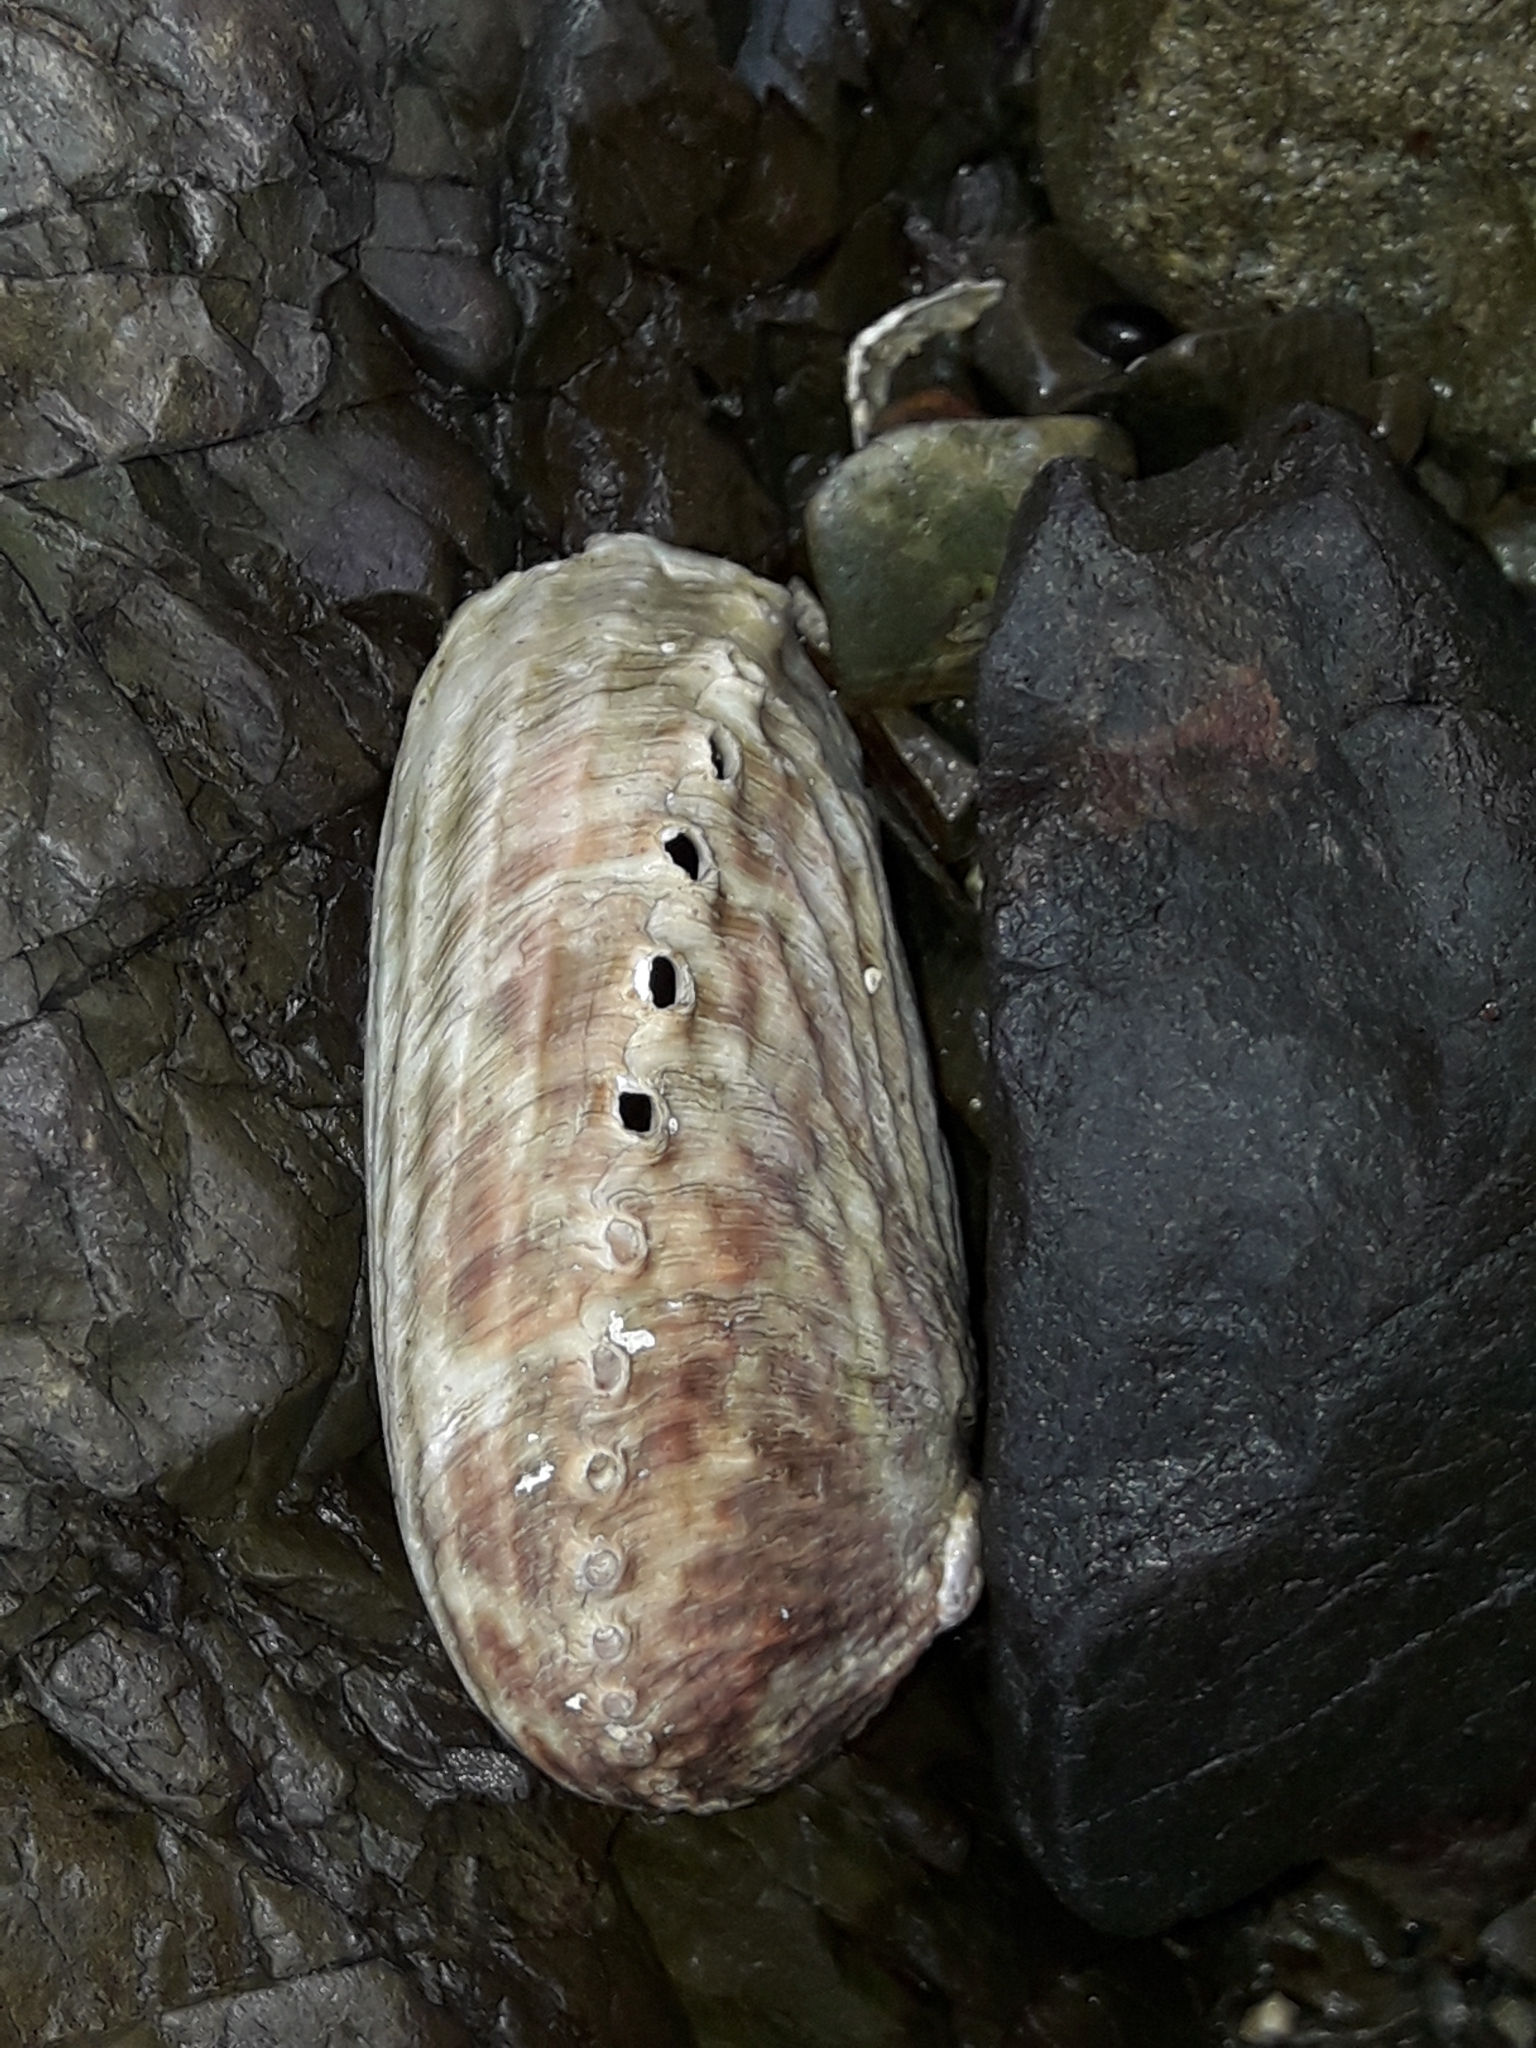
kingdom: Animalia
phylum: Mollusca
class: Gastropoda
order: Lepetellida
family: Haliotidae
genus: Haliotis
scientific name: Haliotis australis
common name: Silver abalone
